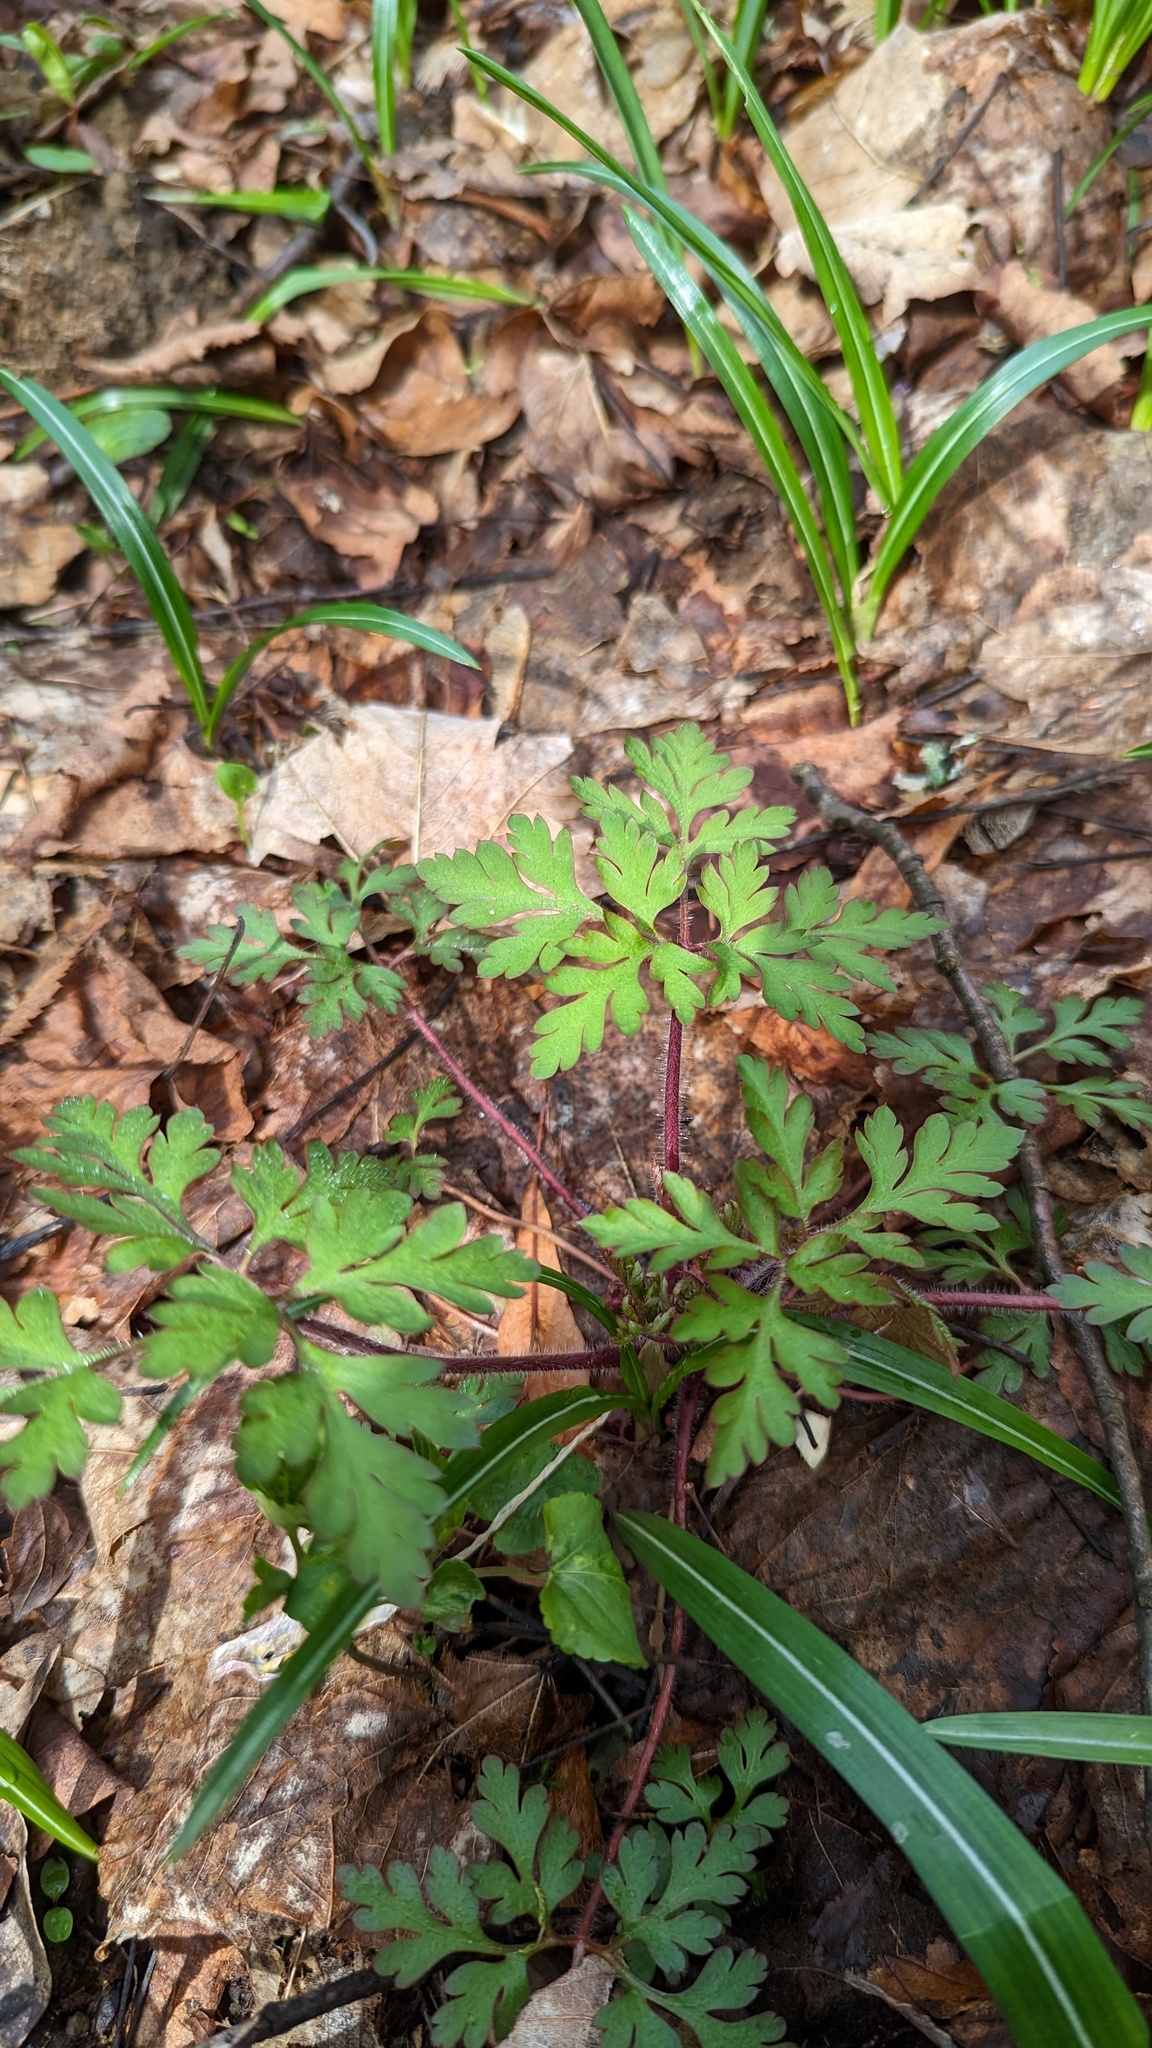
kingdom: Plantae
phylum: Tracheophyta
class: Magnoliopsida
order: Geraniales
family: Geraniaceae
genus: Geranium
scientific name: Geranium robertianum
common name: Herb-robert
